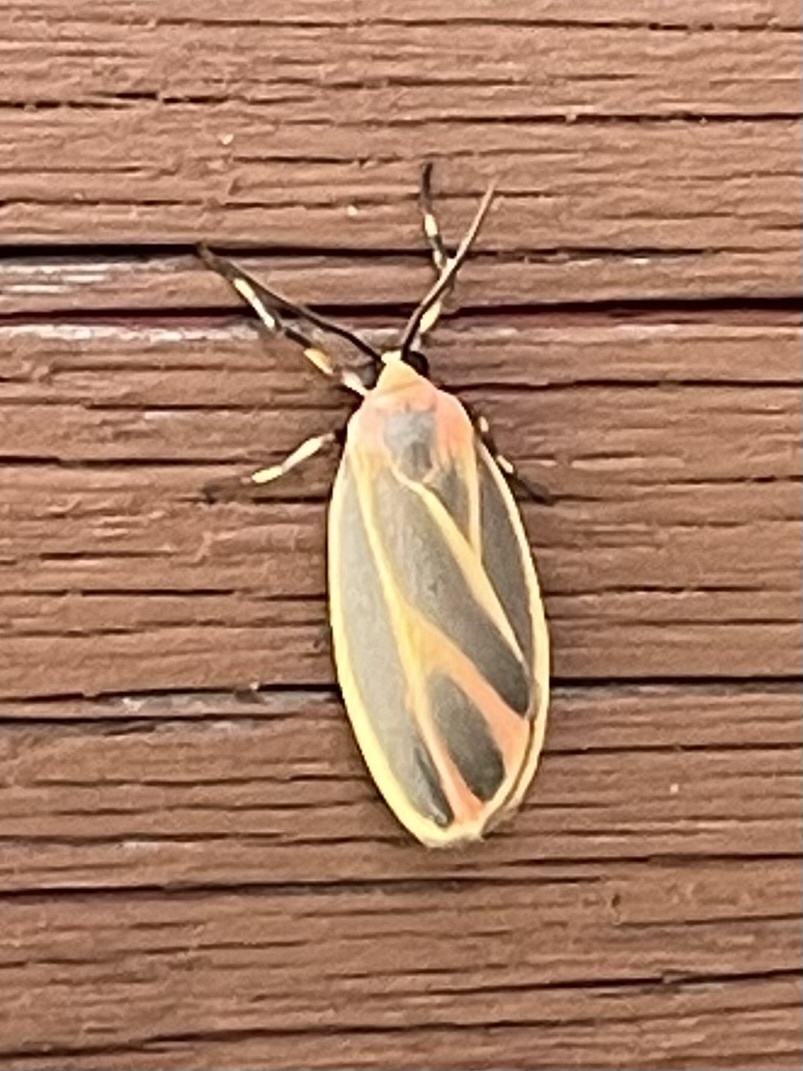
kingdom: Animalia
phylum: Arthropoda
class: Insecta
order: Lepidoptera
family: Erebidae
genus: Hypoprepia
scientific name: Hypoprepia fucosa
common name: Painted lichen moth
